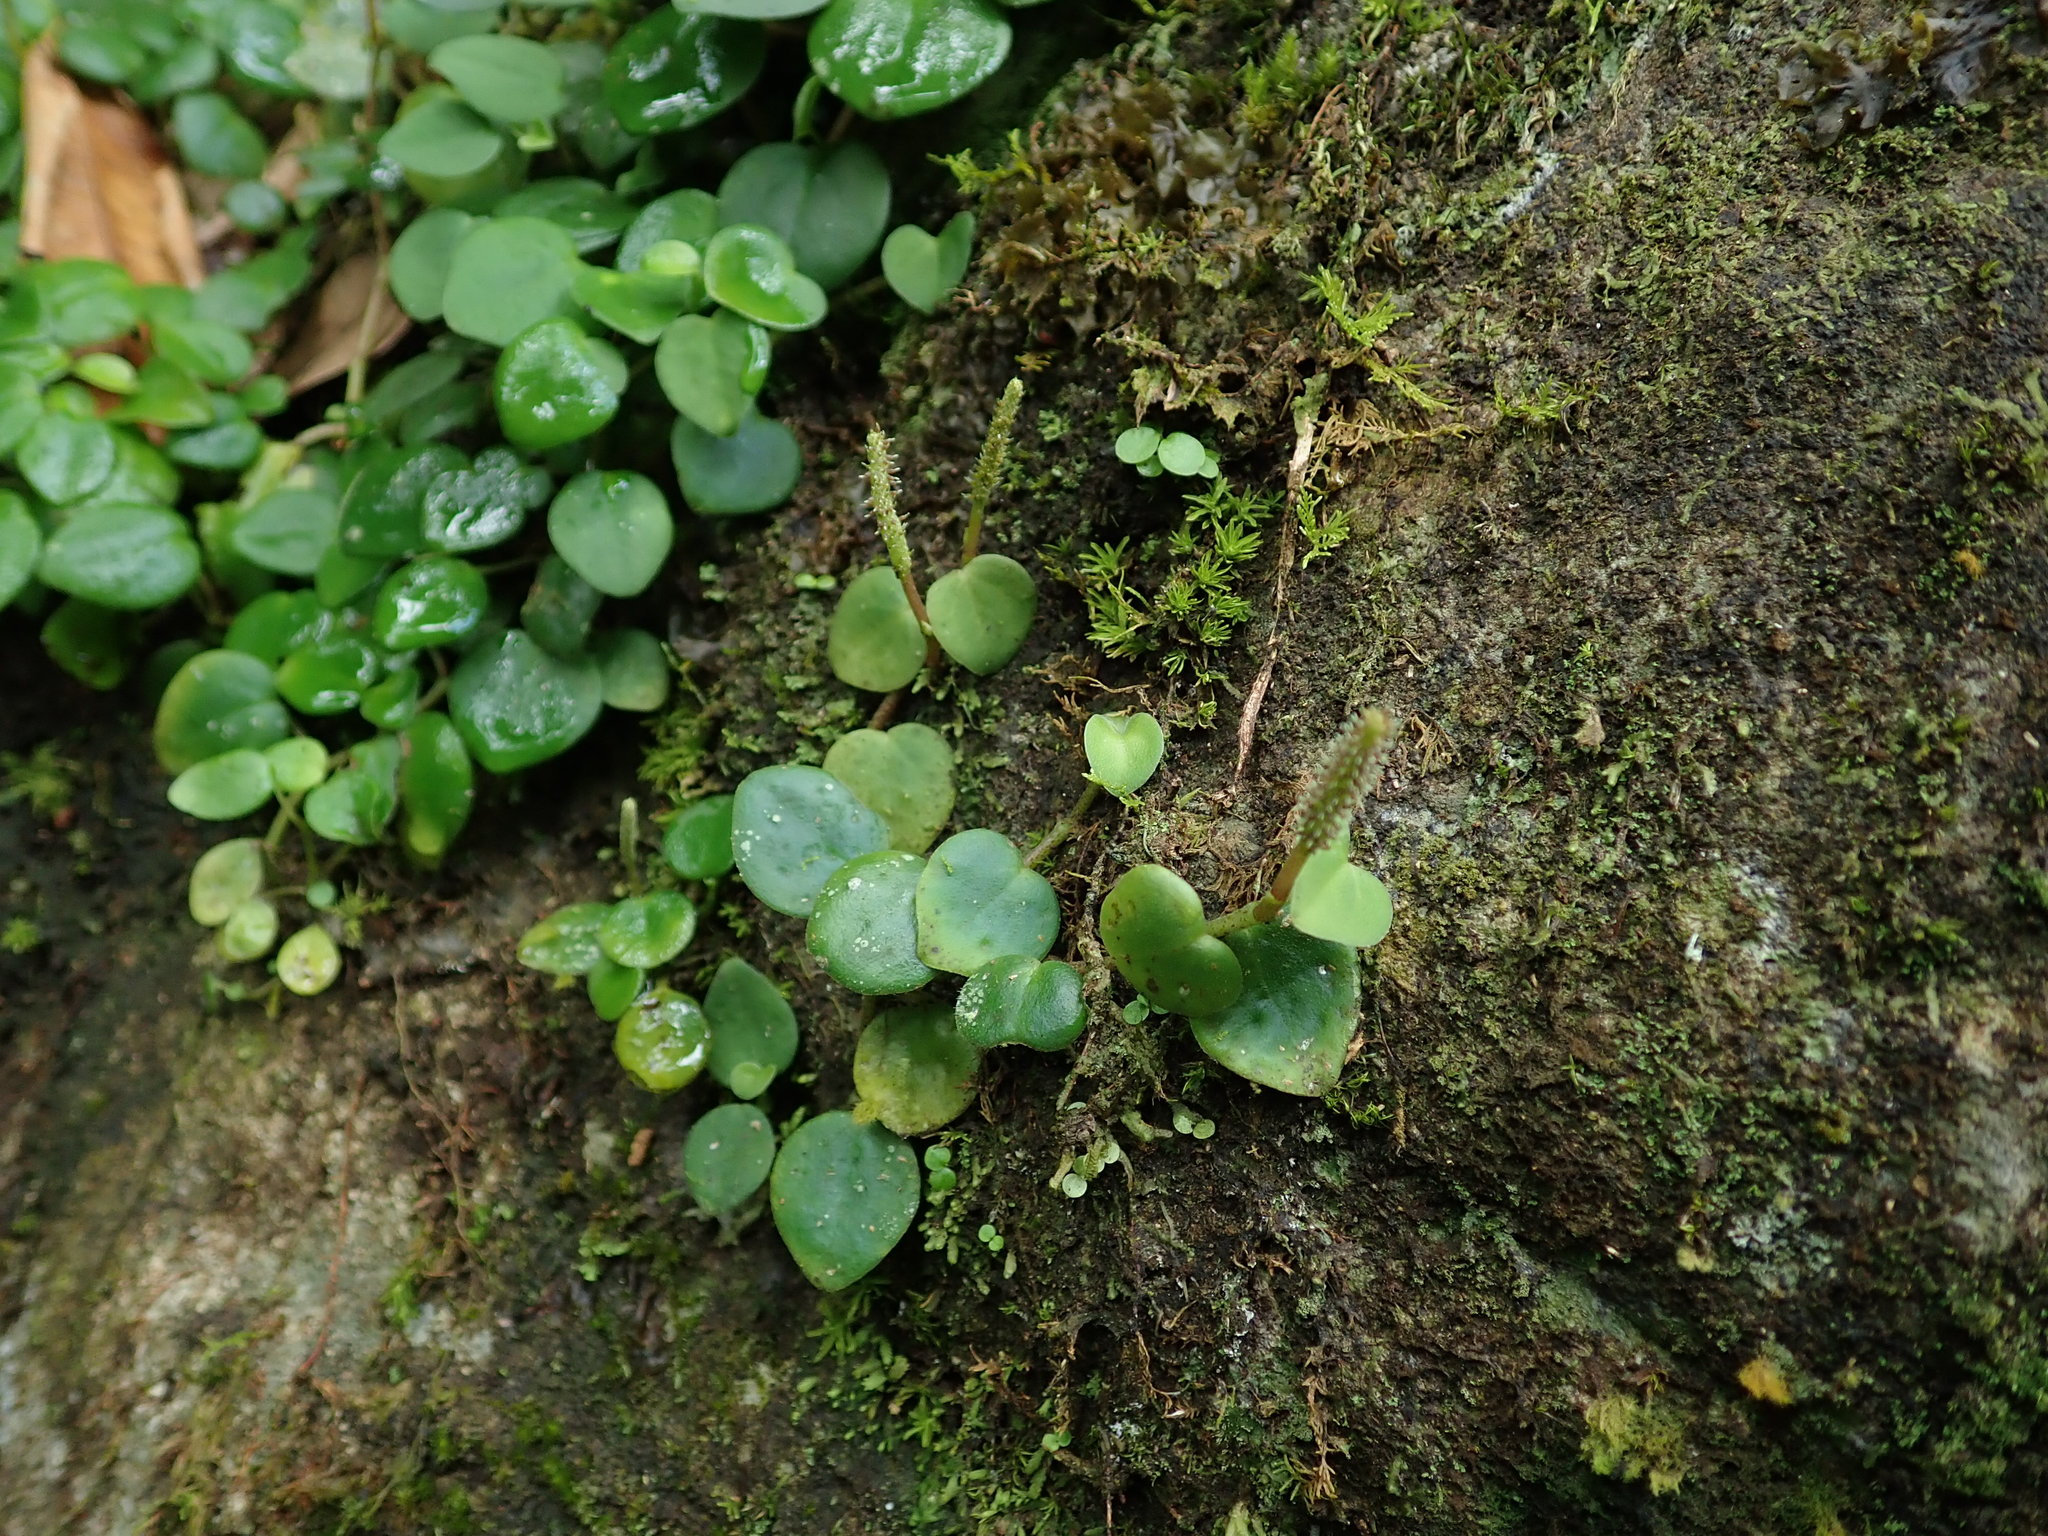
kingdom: Plantae
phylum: Tracheophyta
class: Magnoliopsida
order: Piperales
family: Piperaceae
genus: Peperomia
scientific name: Peperomia serpens
